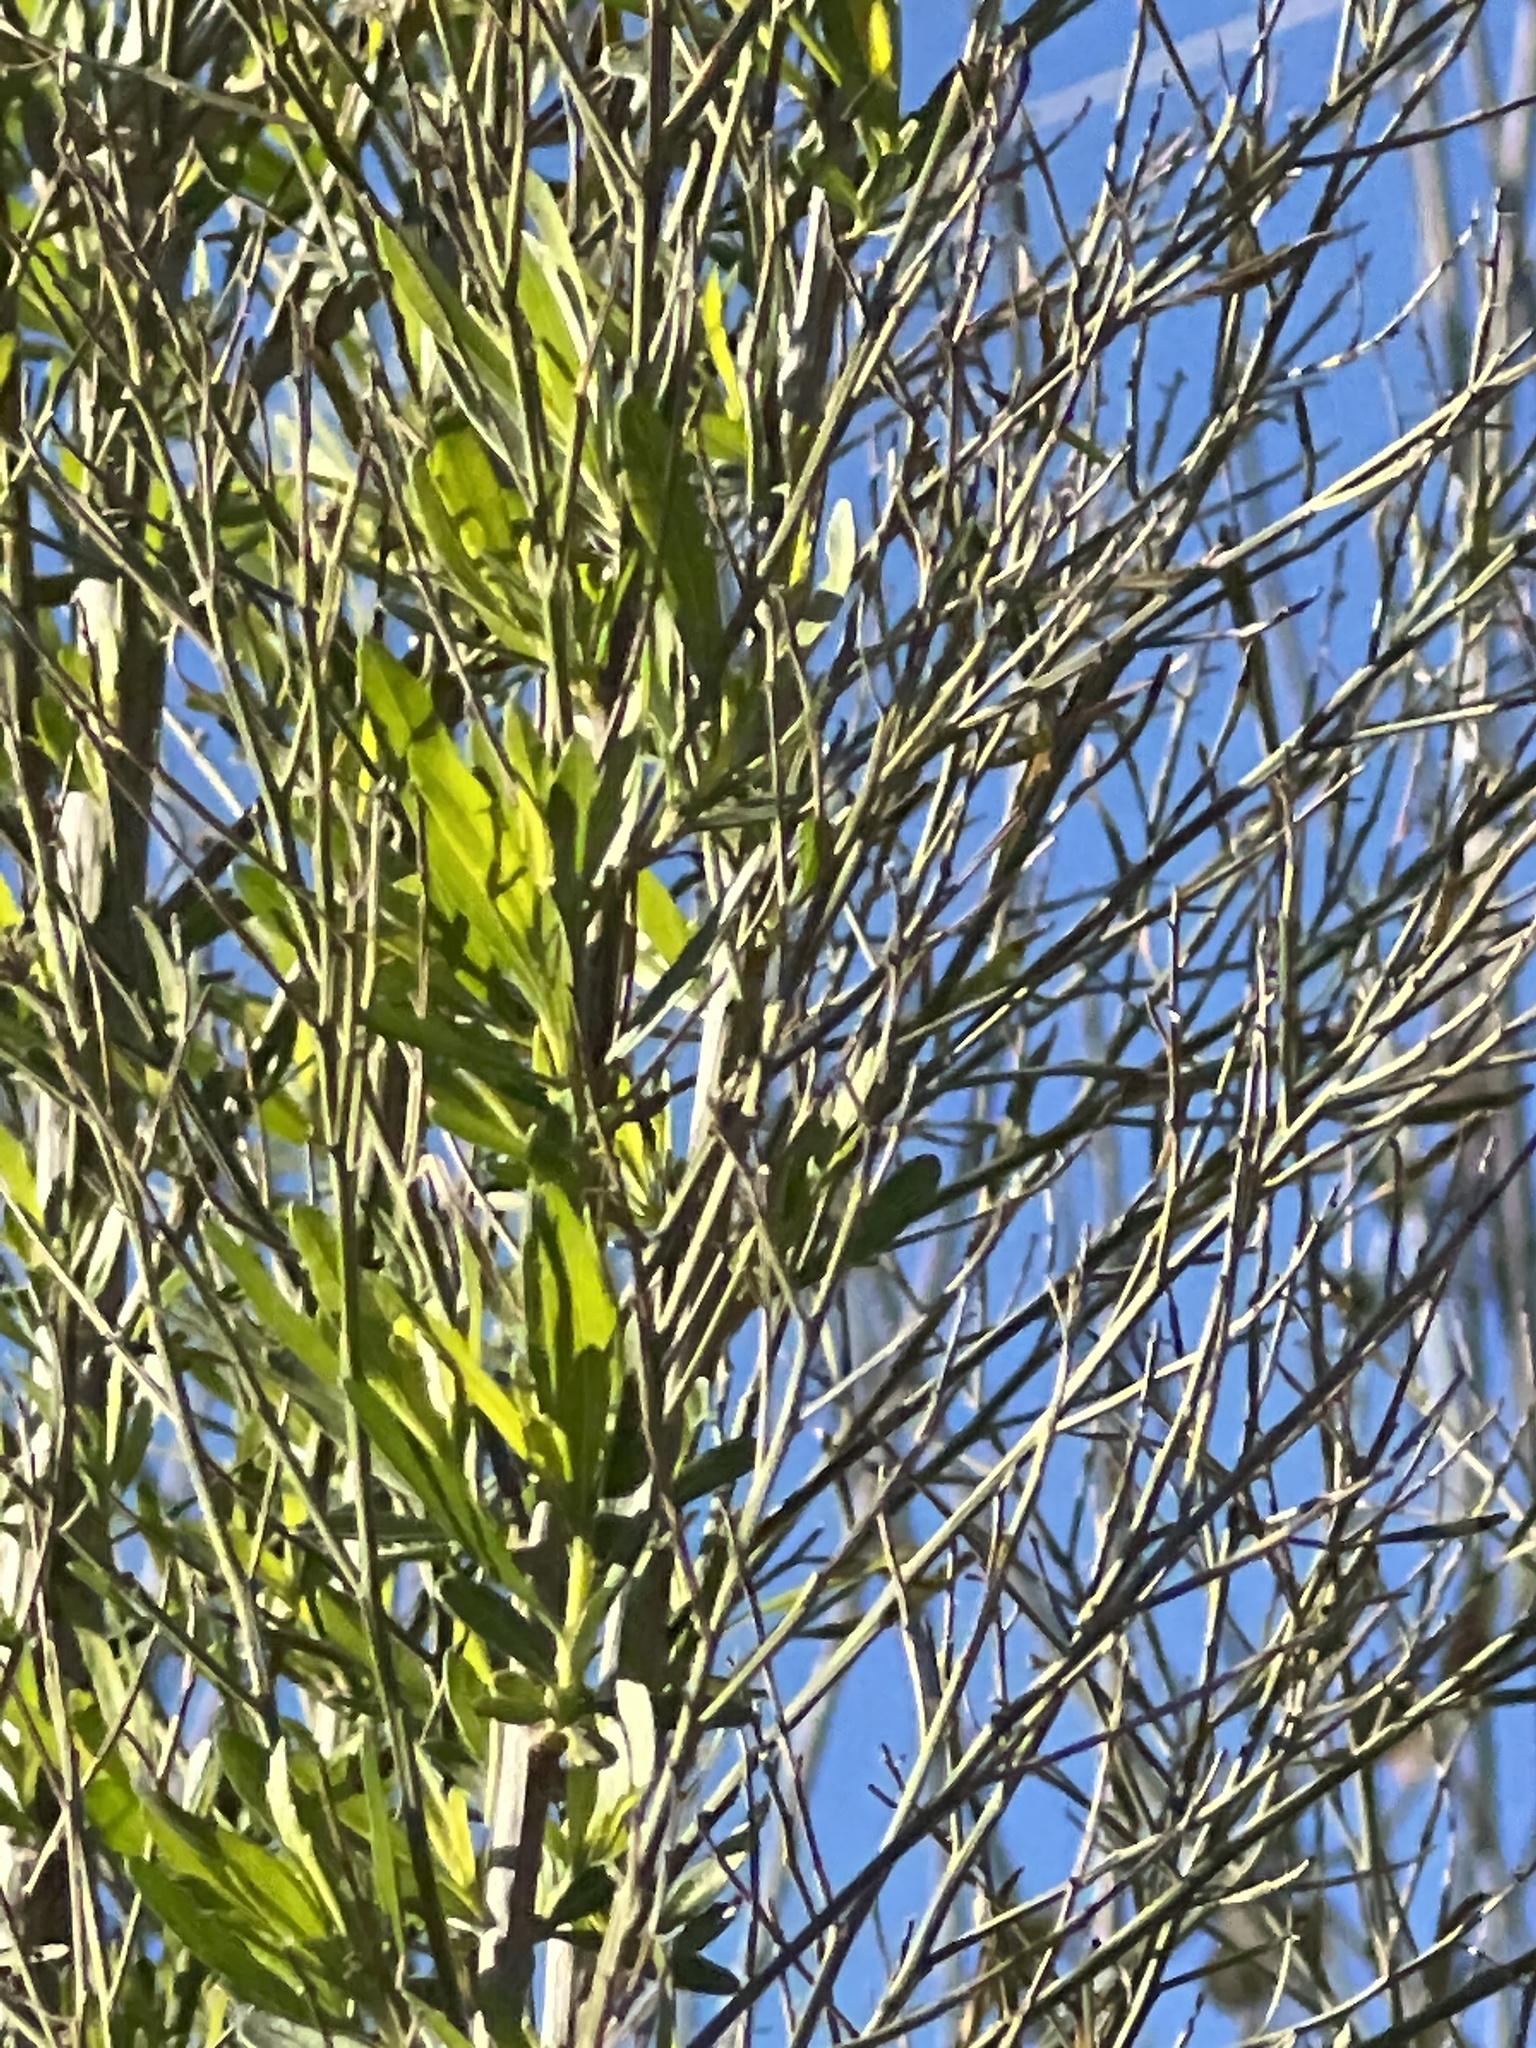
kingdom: Plantae
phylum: Tracheophyta
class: Magnoliopsida
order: Asterales
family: Asteraceae
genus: Baccharis
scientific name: Baccharis neglecta
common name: Roosevelt-weed
